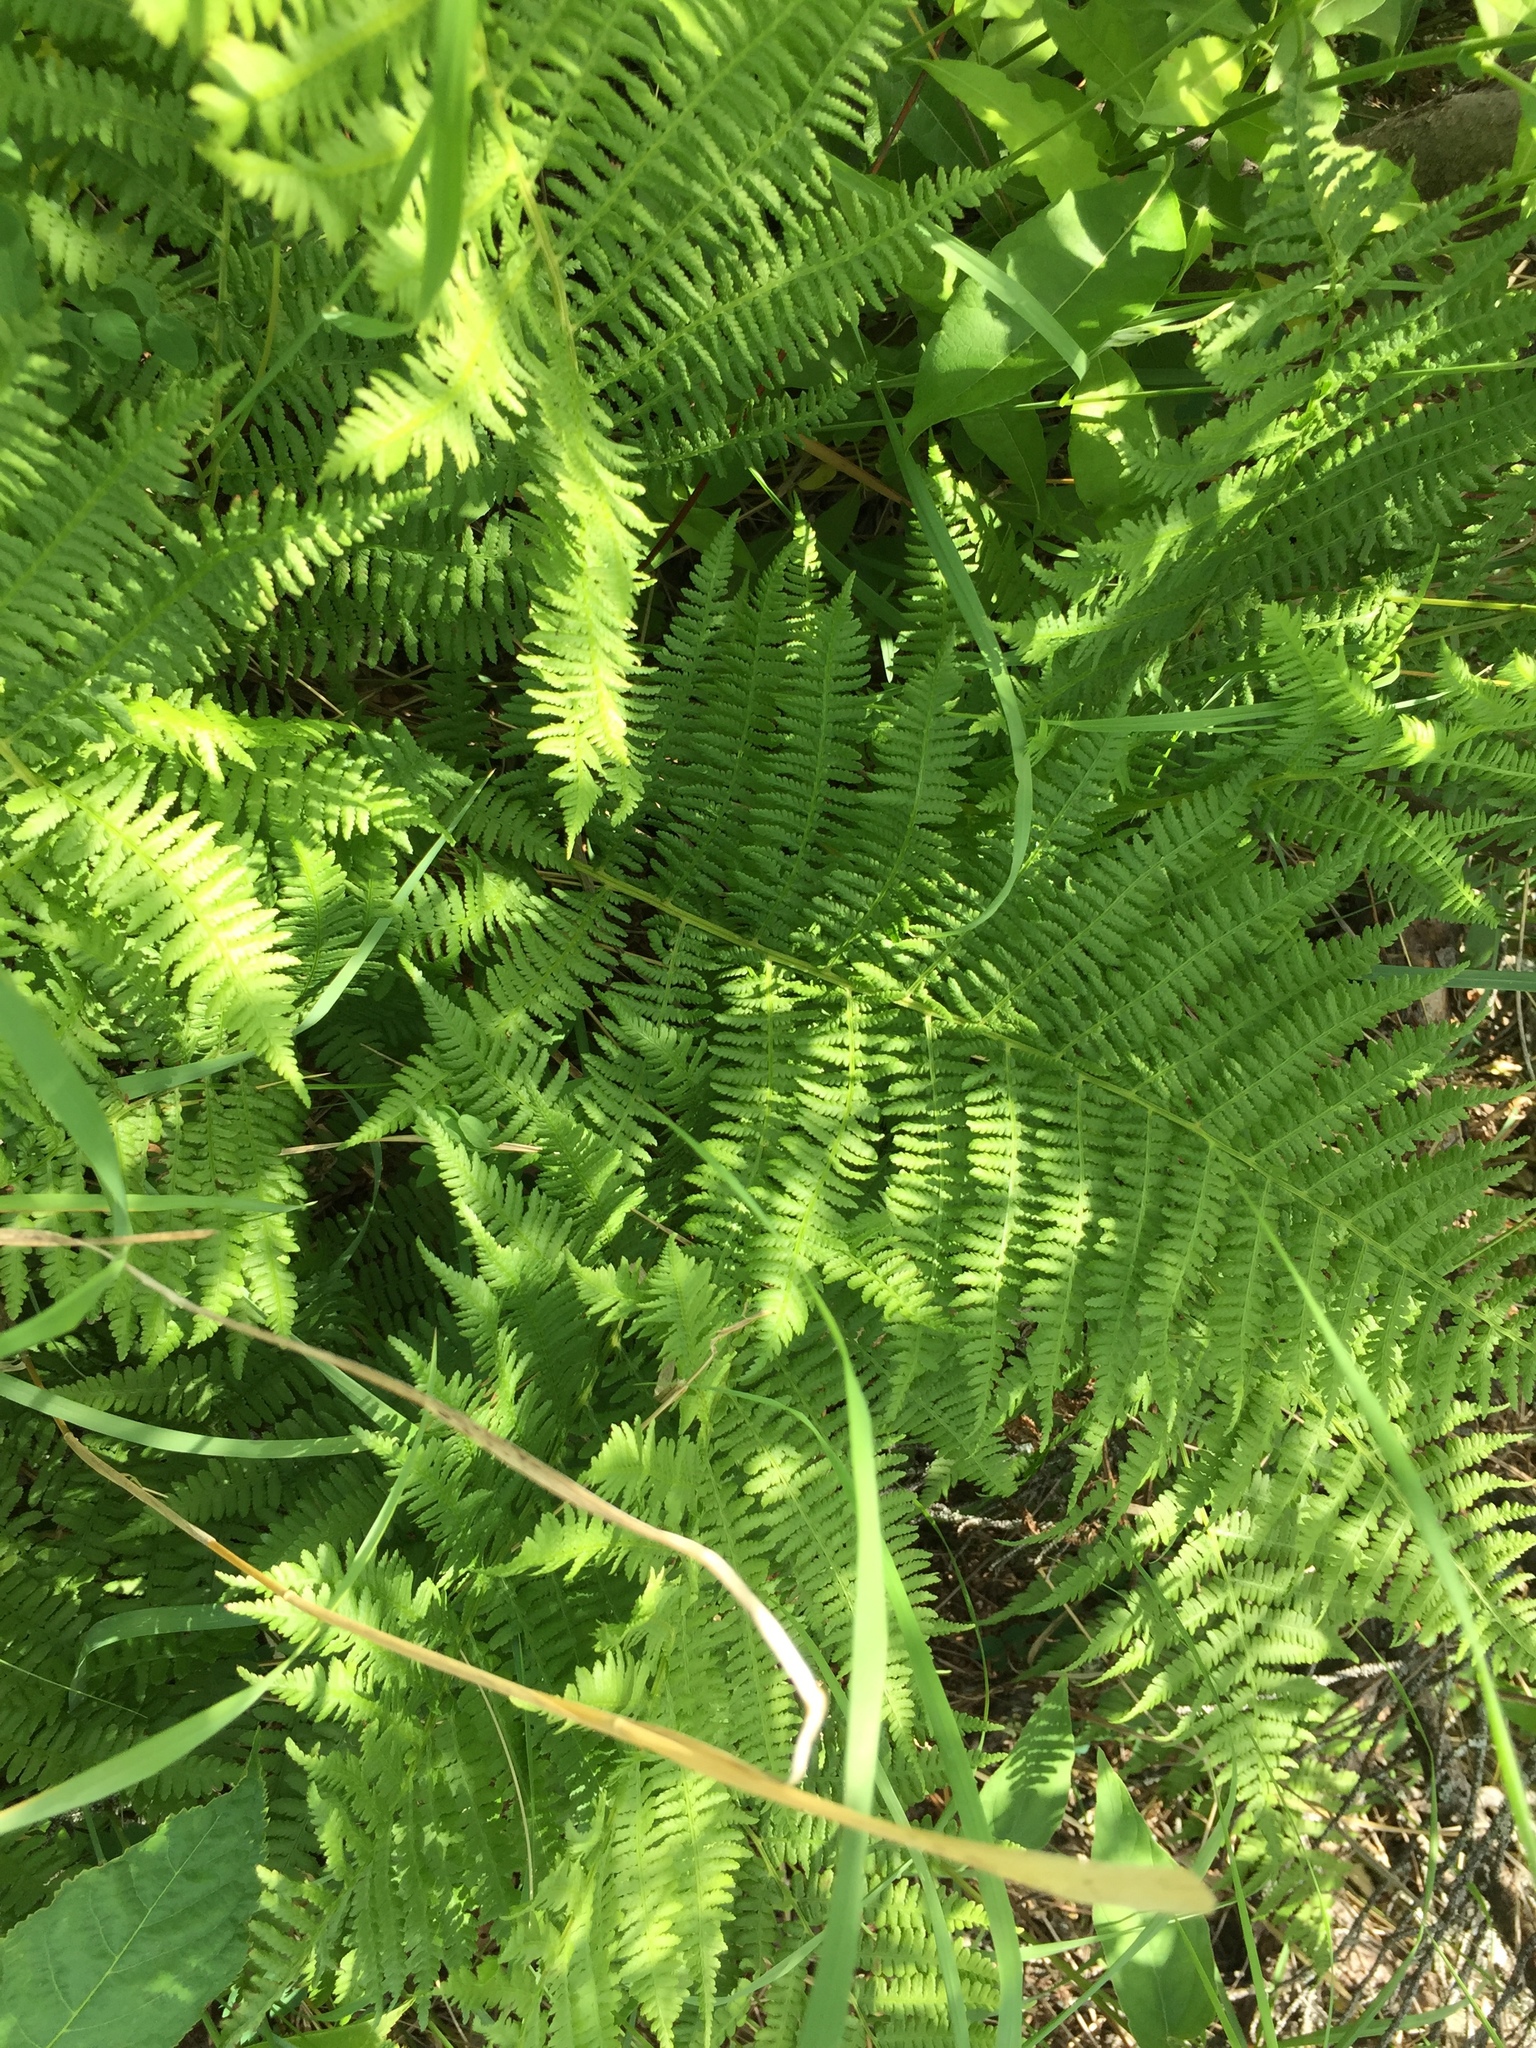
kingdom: Plantae
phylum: Tracheophyta
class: Polypodiopsida
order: Polypodiales
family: Athyriaceae
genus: Athyrium
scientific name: Athyrium angustum
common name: Northern lady fern
